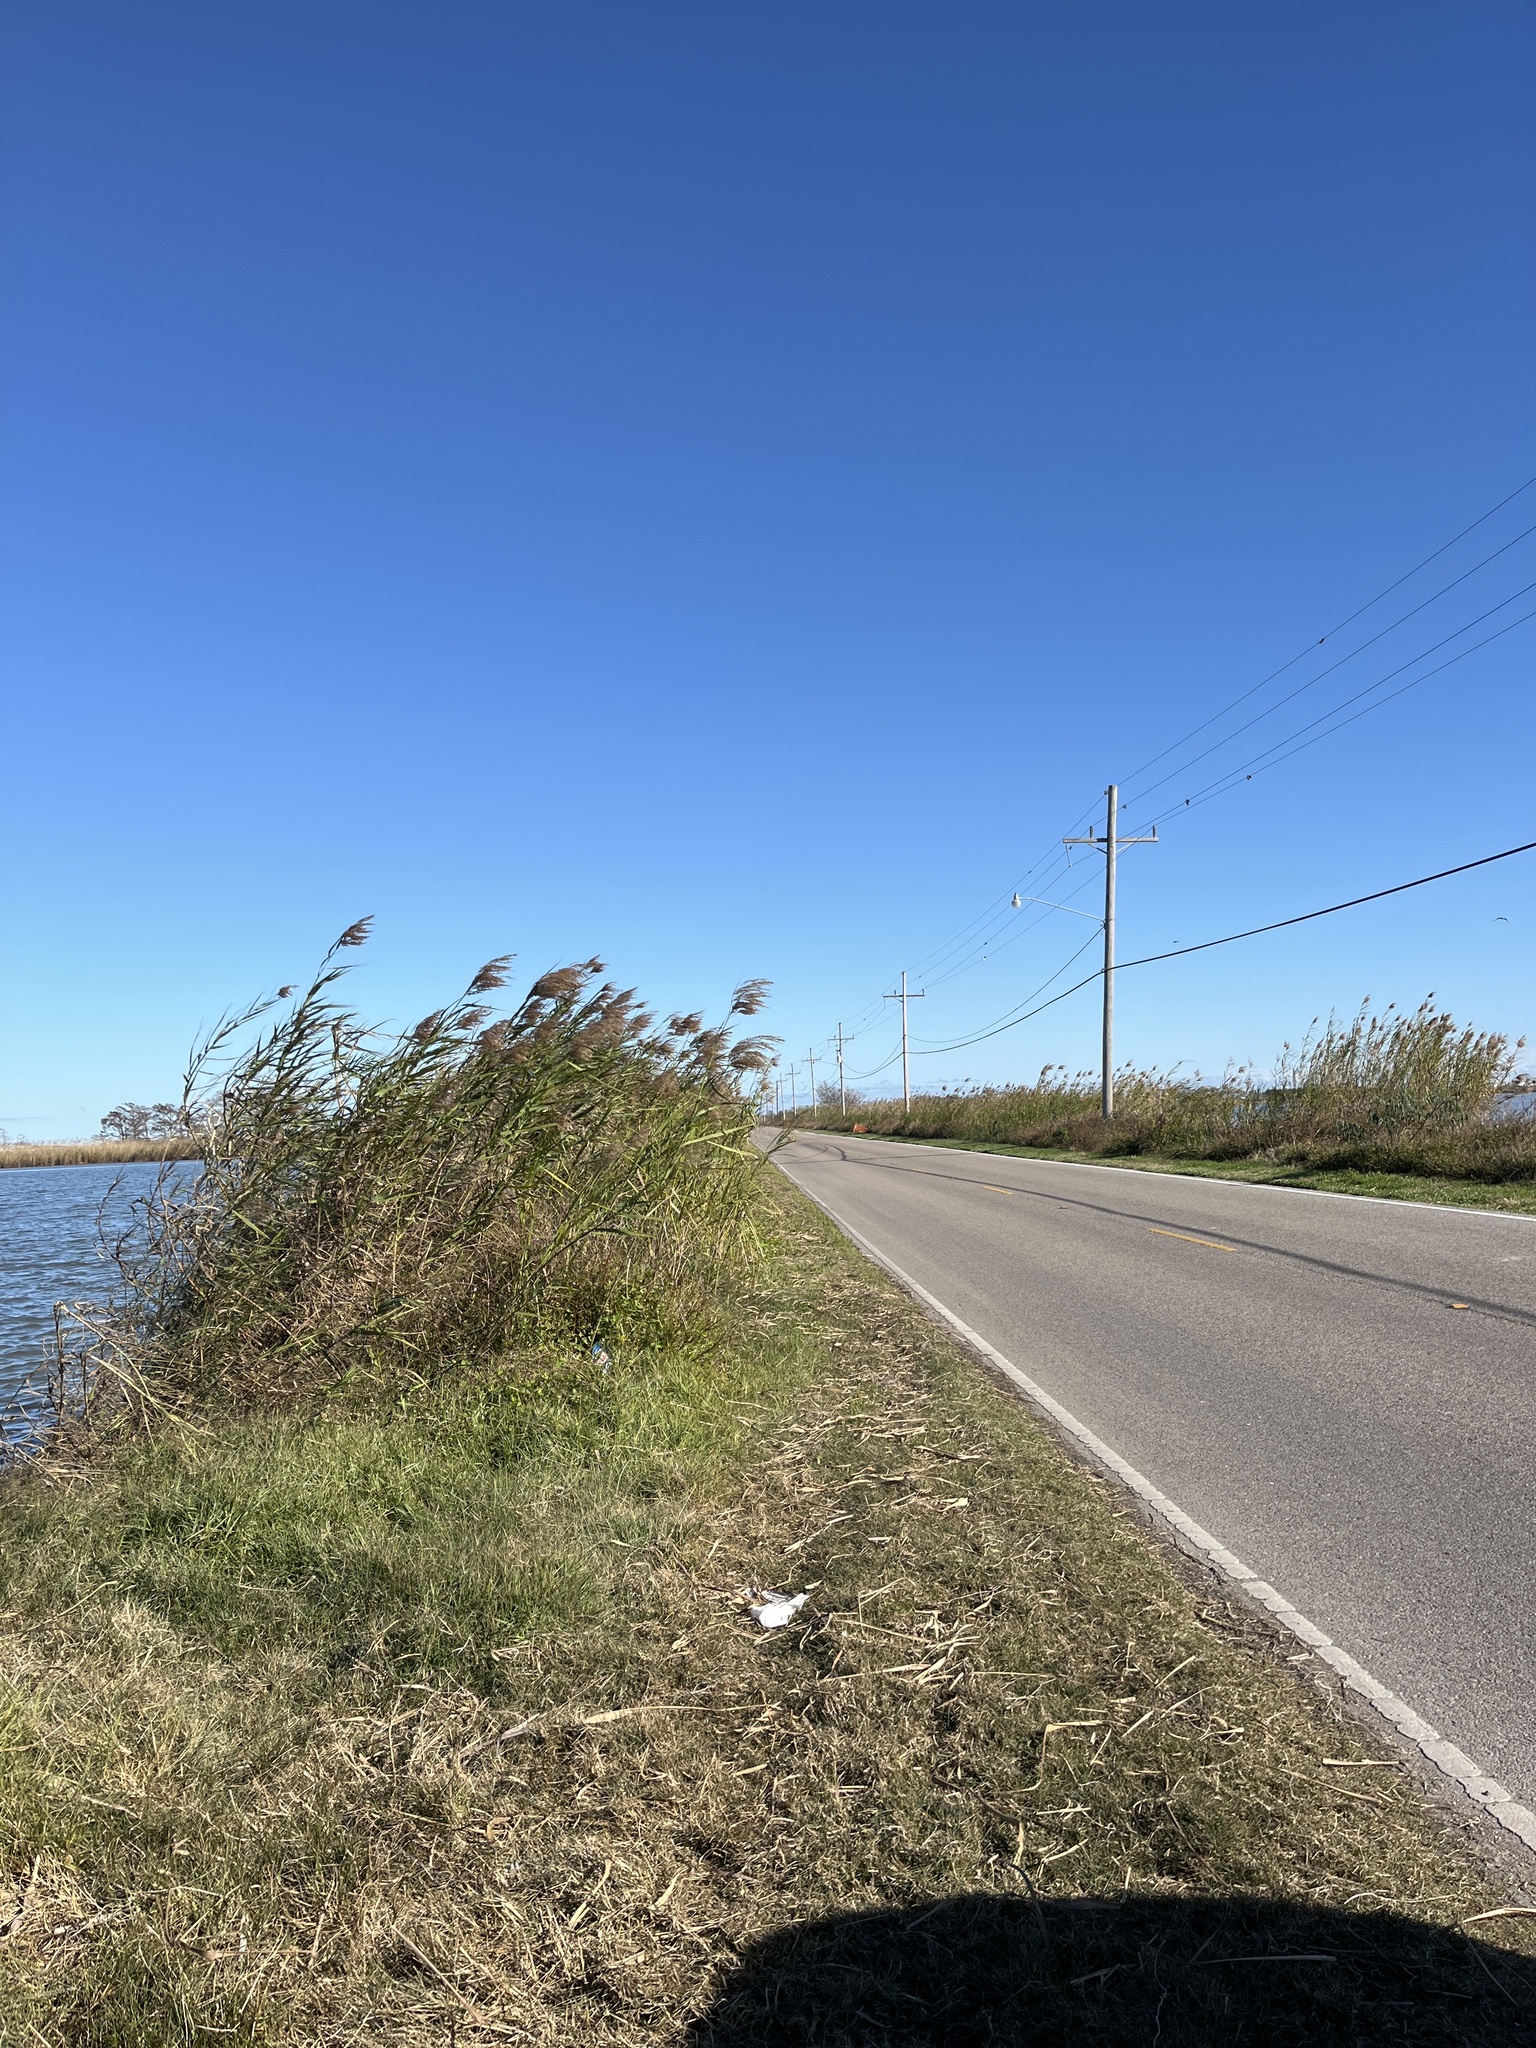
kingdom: Plantae
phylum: Tracheophyta
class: Liliopsida
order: Poales
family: Poaceae
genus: Phragmites
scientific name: Phragmites australis
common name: Common reed
